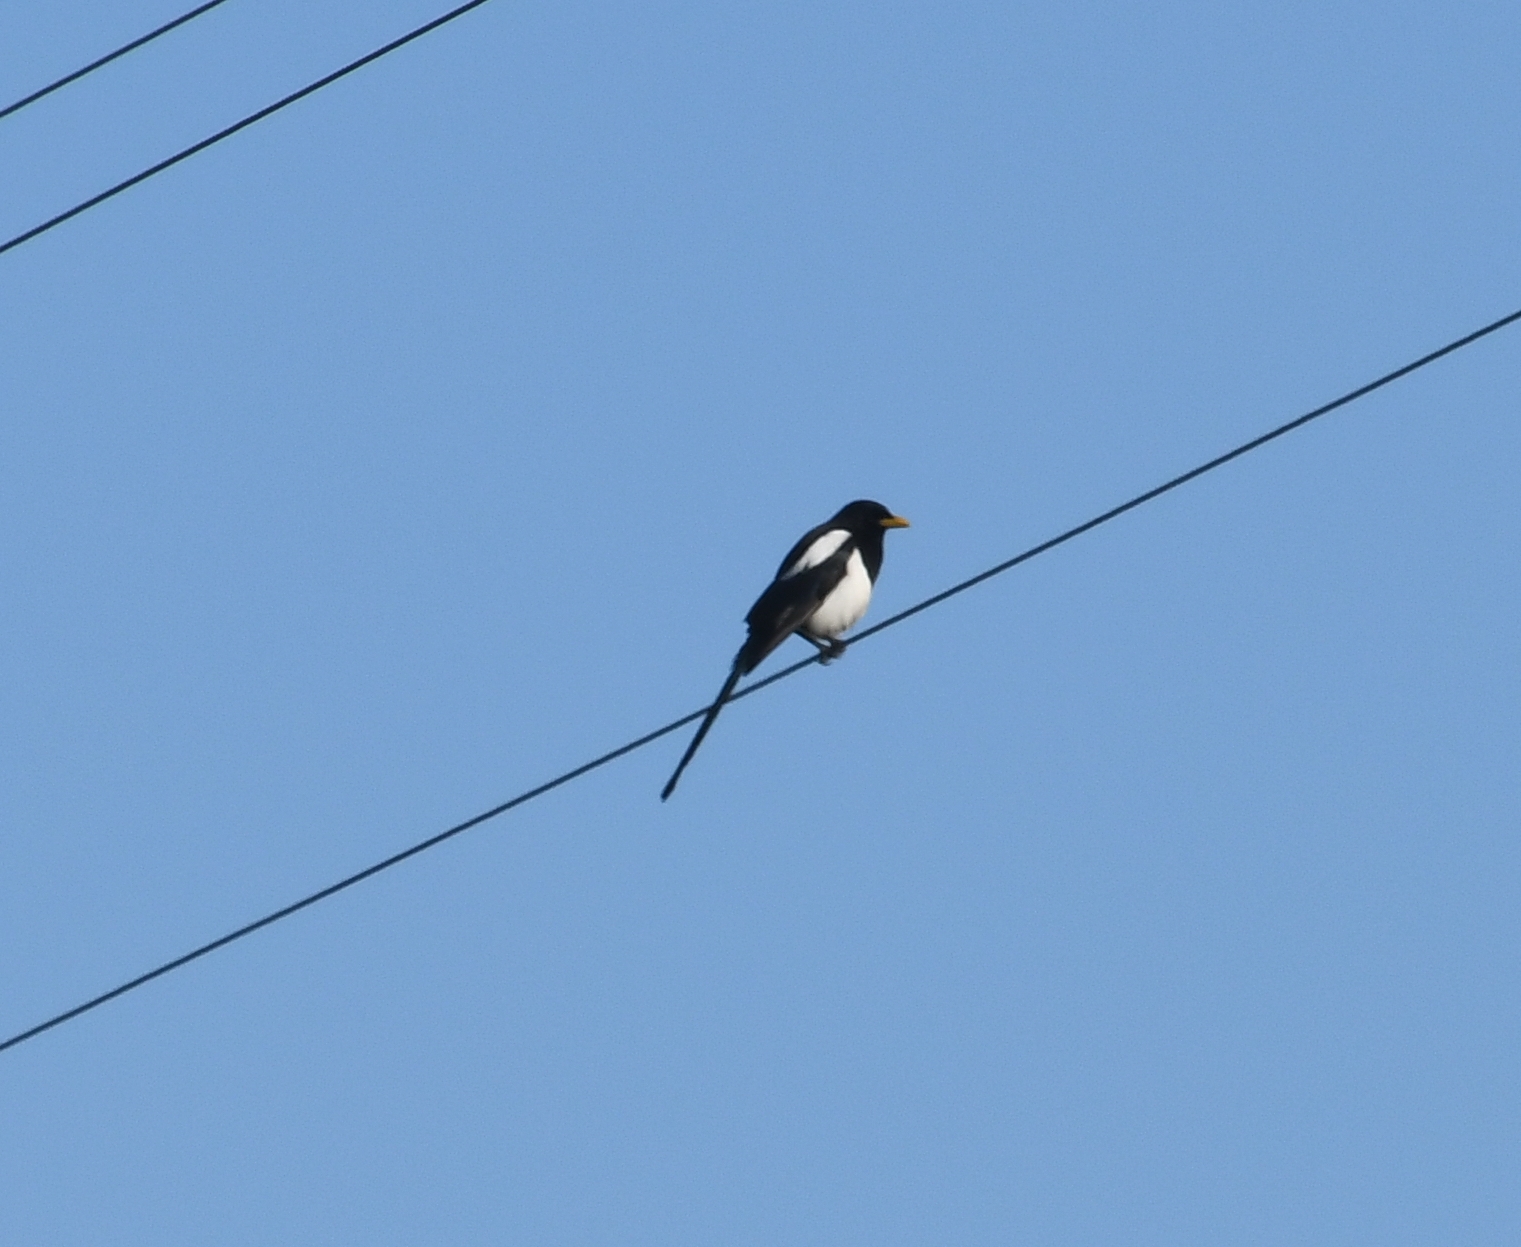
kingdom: Animalia
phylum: Chordata
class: Aves
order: Passeriformes
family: Corvidae
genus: Pica
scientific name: Pica nuttalli
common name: Yellow-billed magpie
